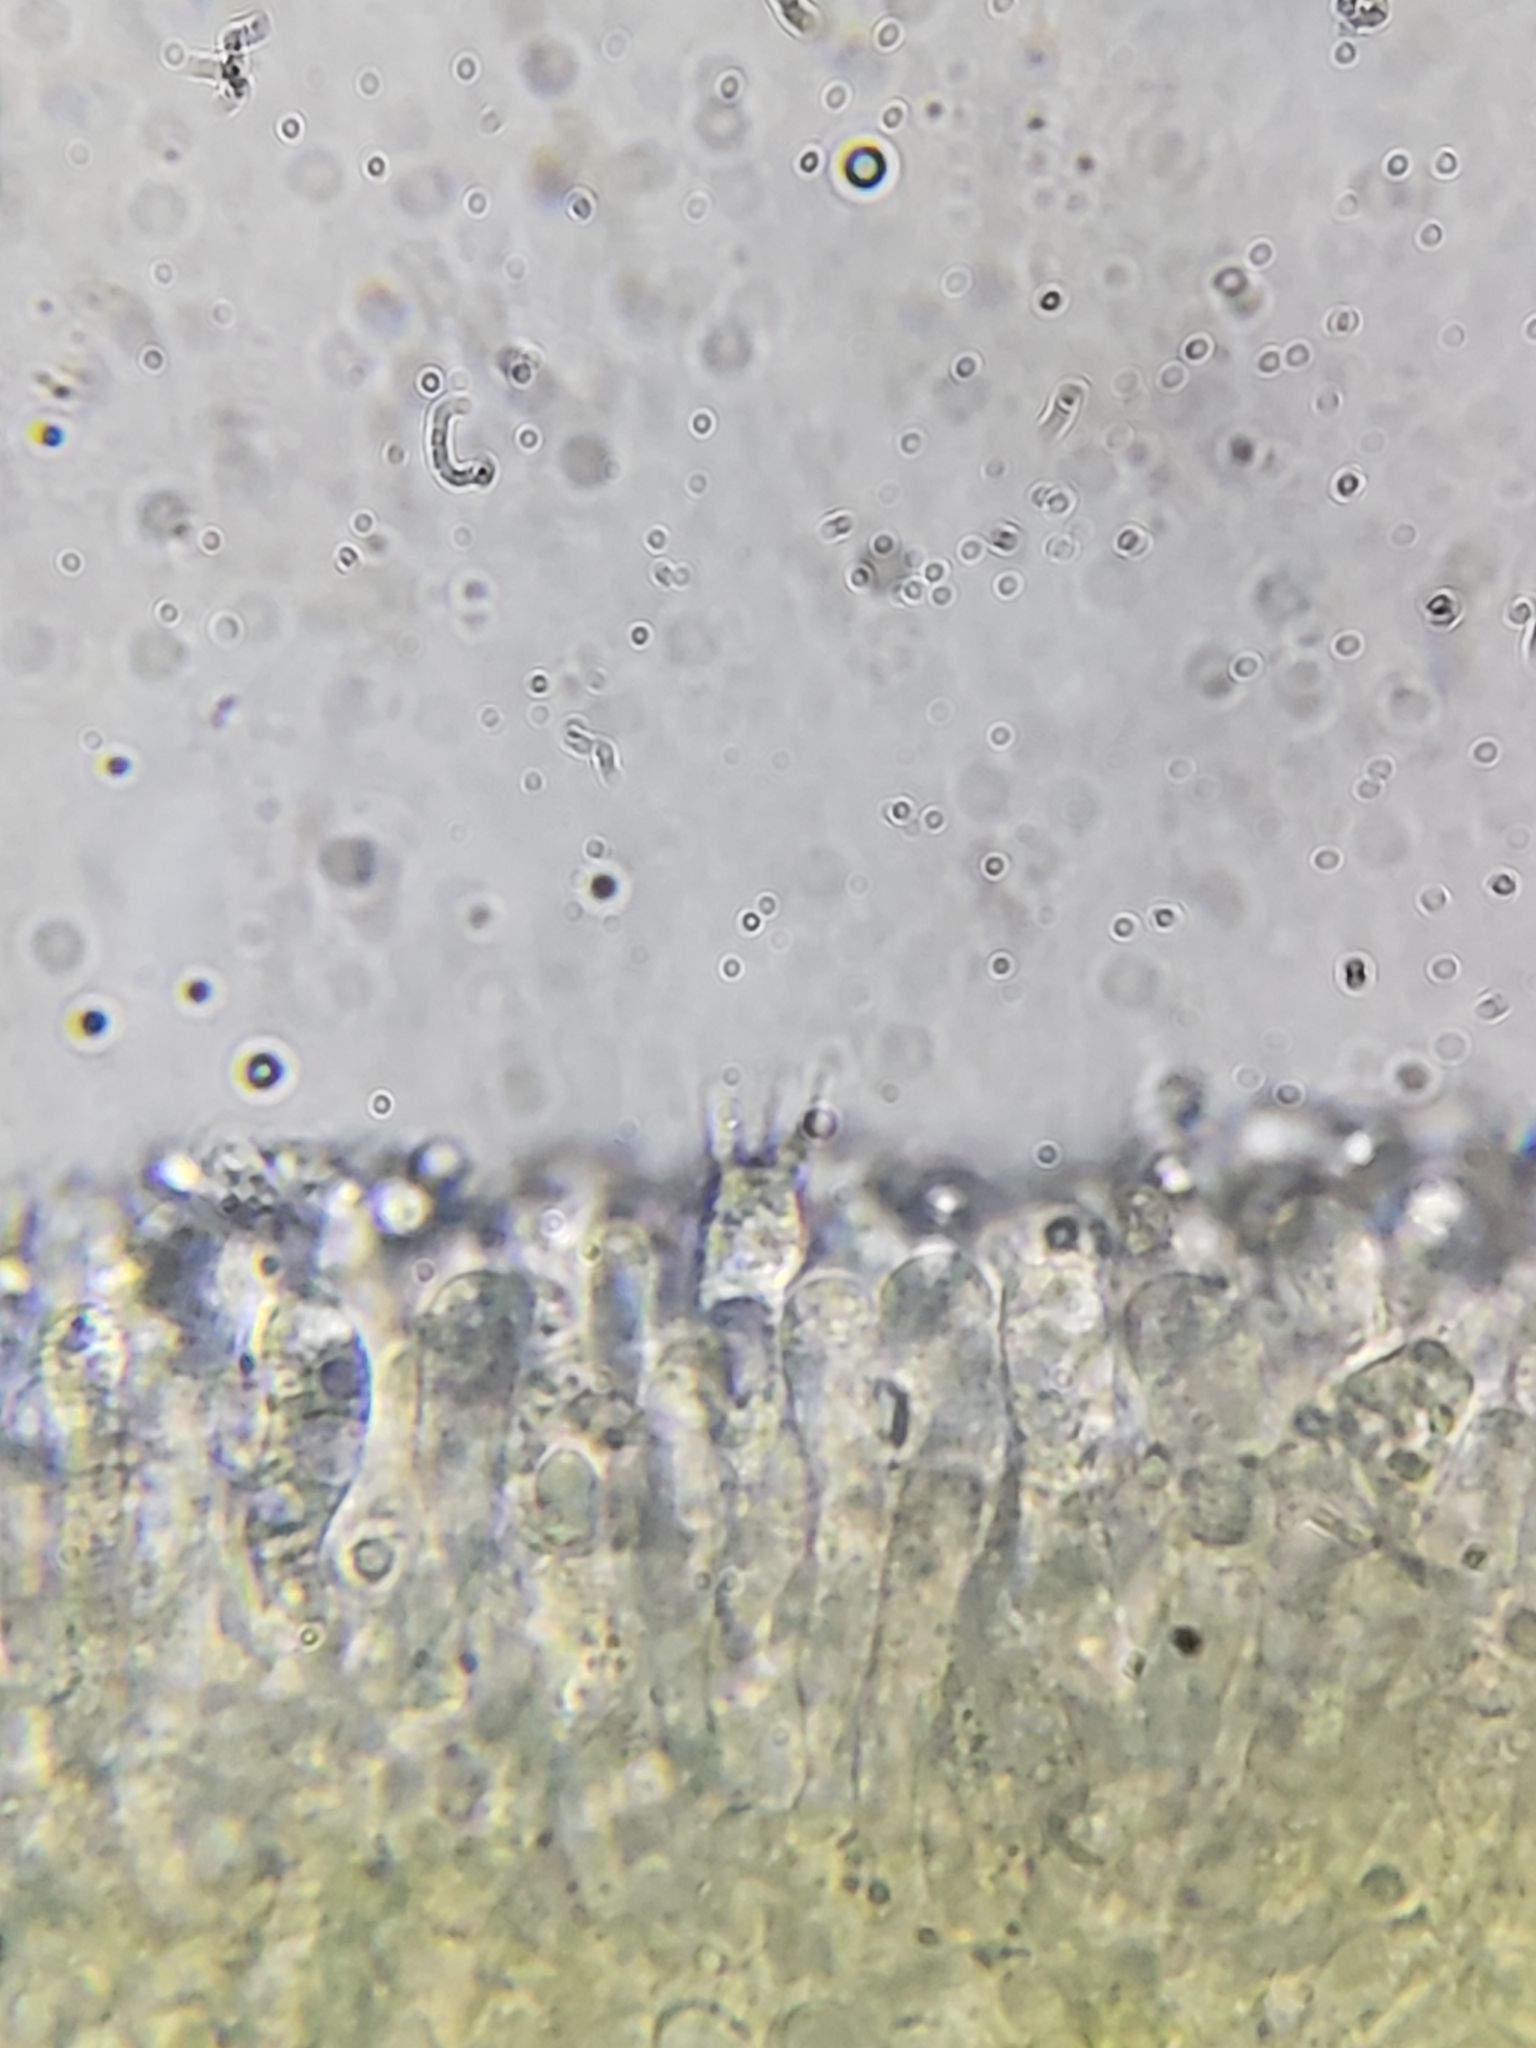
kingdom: Fungi
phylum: Basidiomycota
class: Agaricomycetes
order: Agaricales
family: Clavariaceae
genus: Mucronella
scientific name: Mucronella flava
